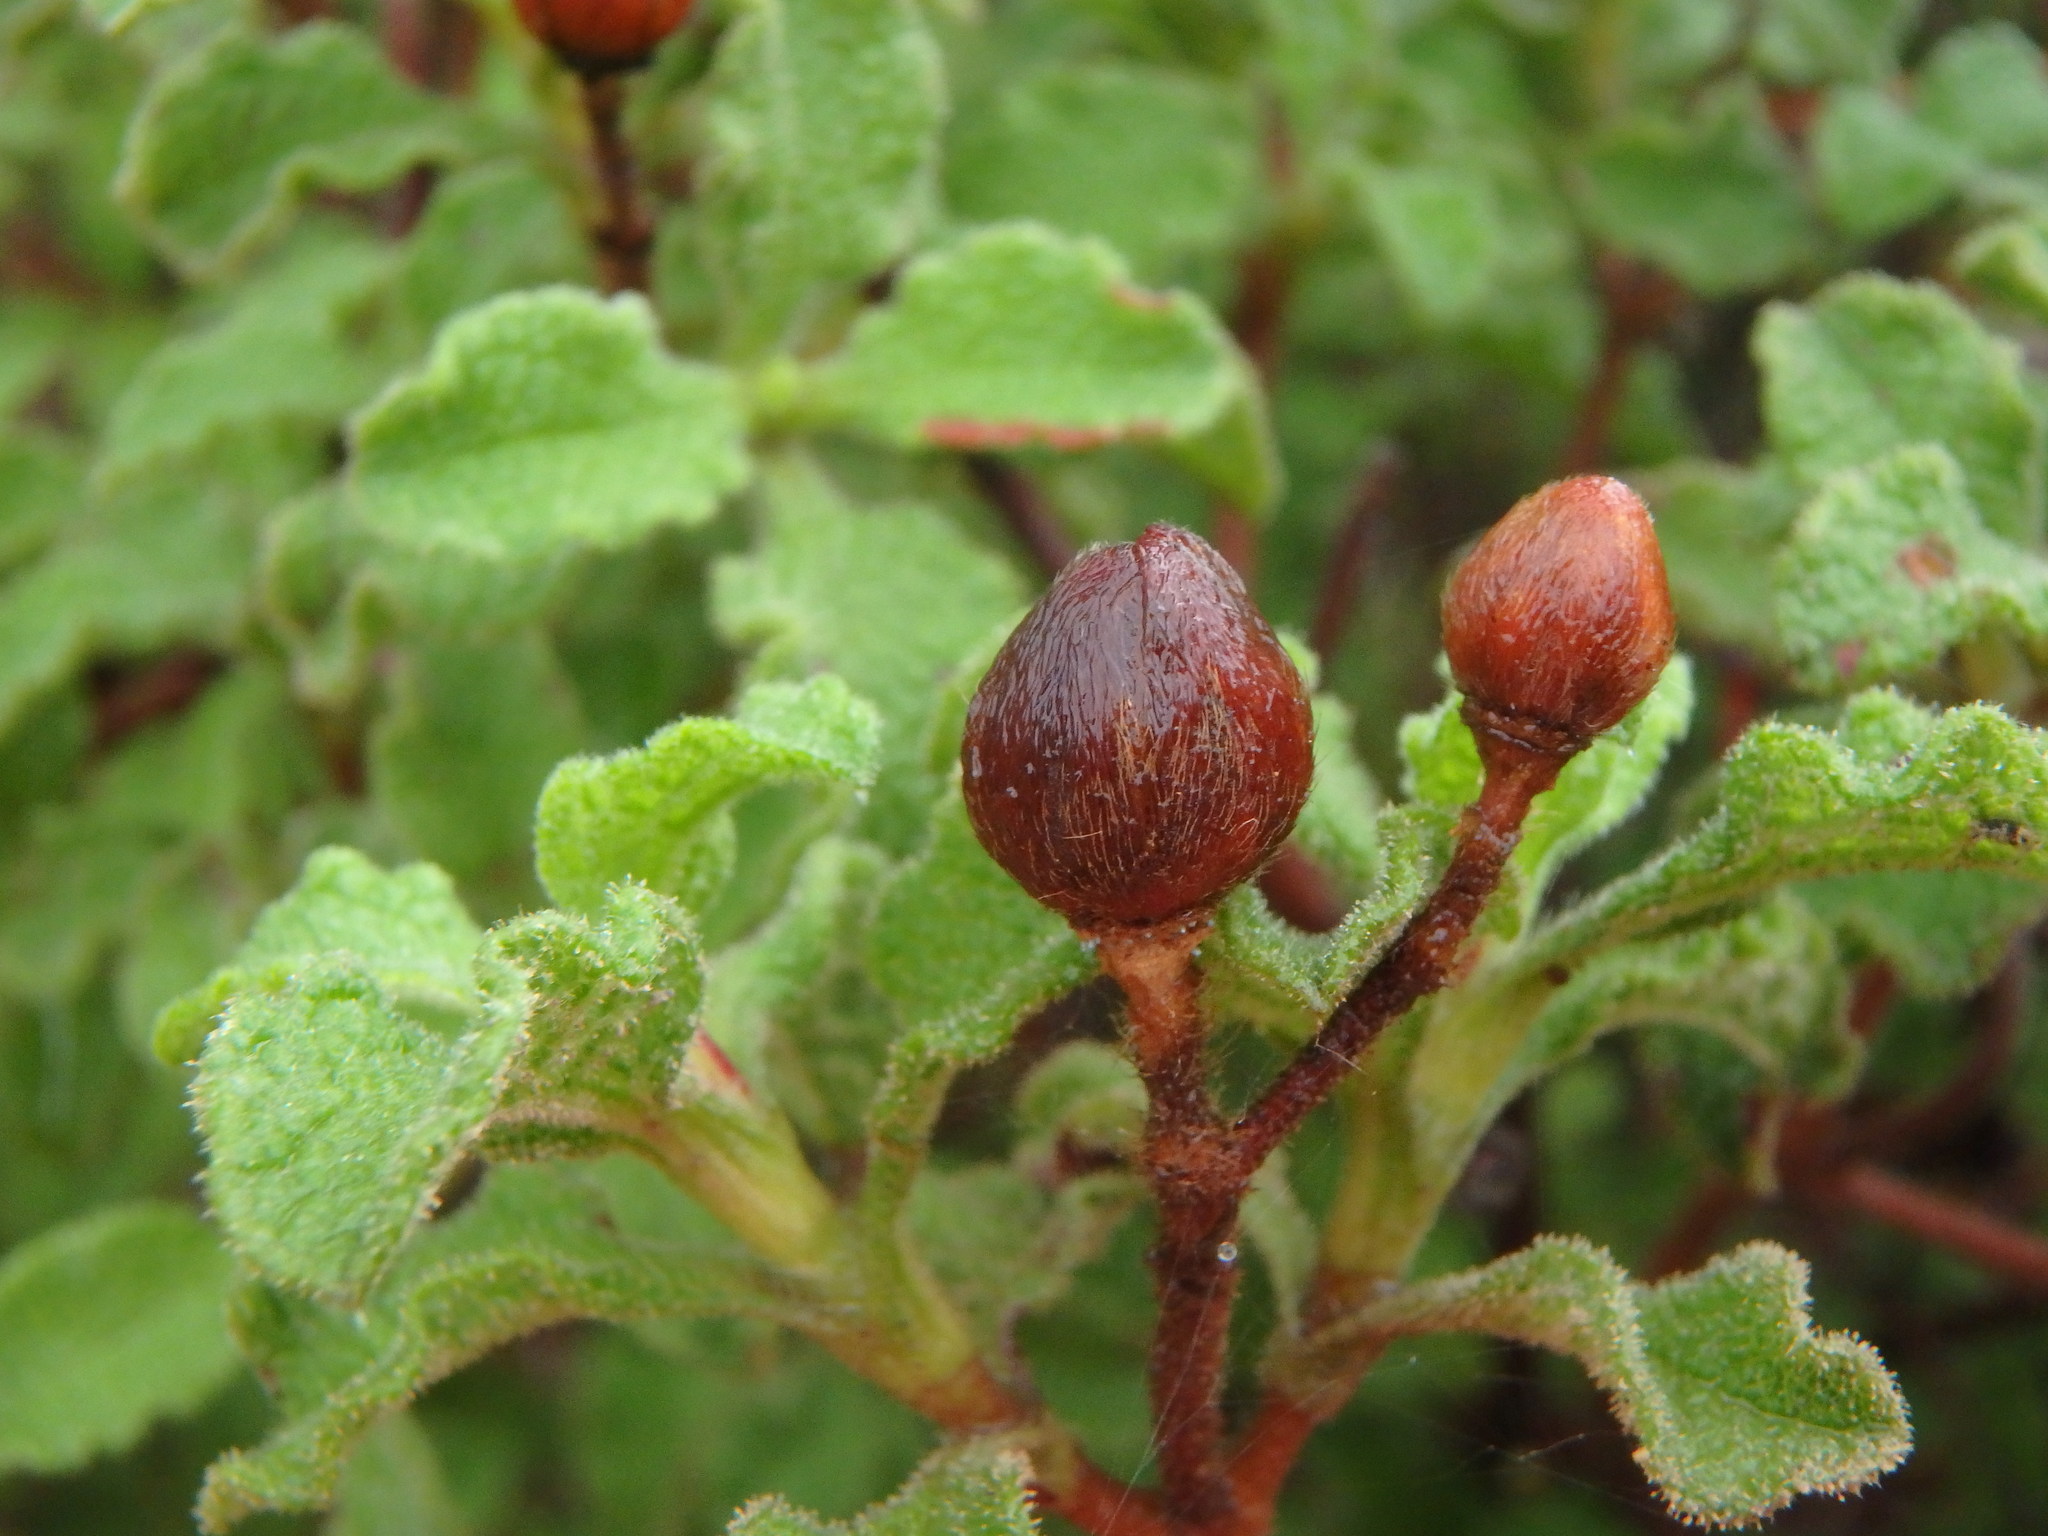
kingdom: Plantae
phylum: Tracheophyta
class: Magnoliopsida
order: Malvales
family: Cistaceae
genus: Cistus
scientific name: Cistus creticus
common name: Cretan rockrose
